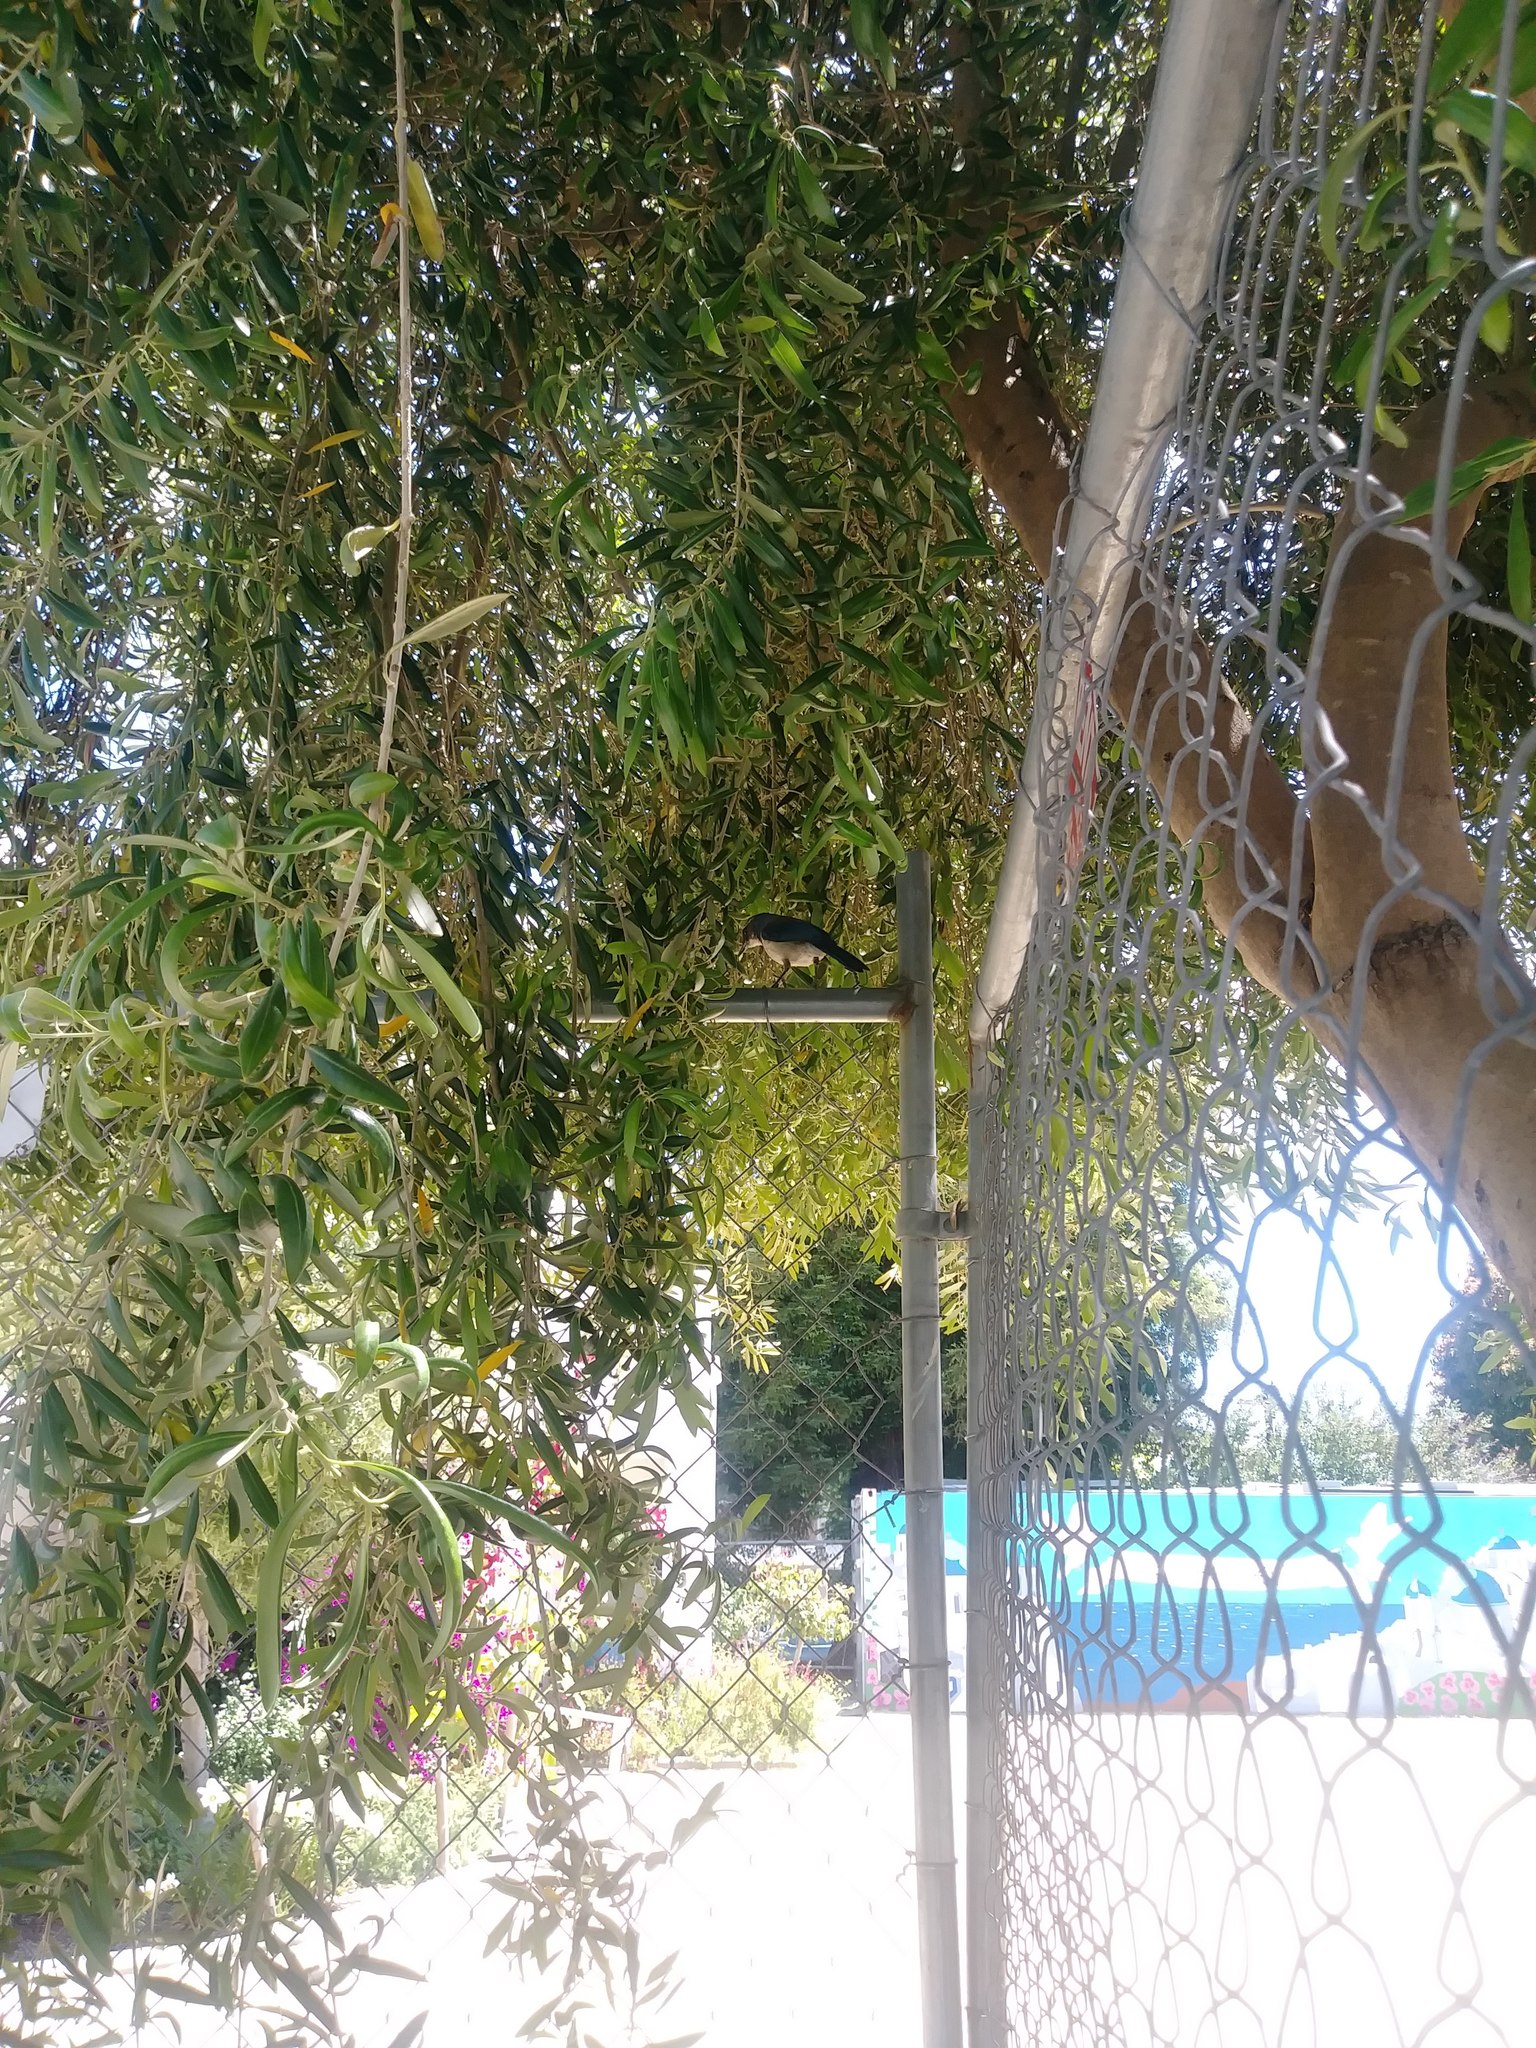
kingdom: Animalia
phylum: Chordata
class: Aves
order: Passeriformes
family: Corvidae
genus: Aphelocoma
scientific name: Aphelocoma californica
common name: California scrub-jay
